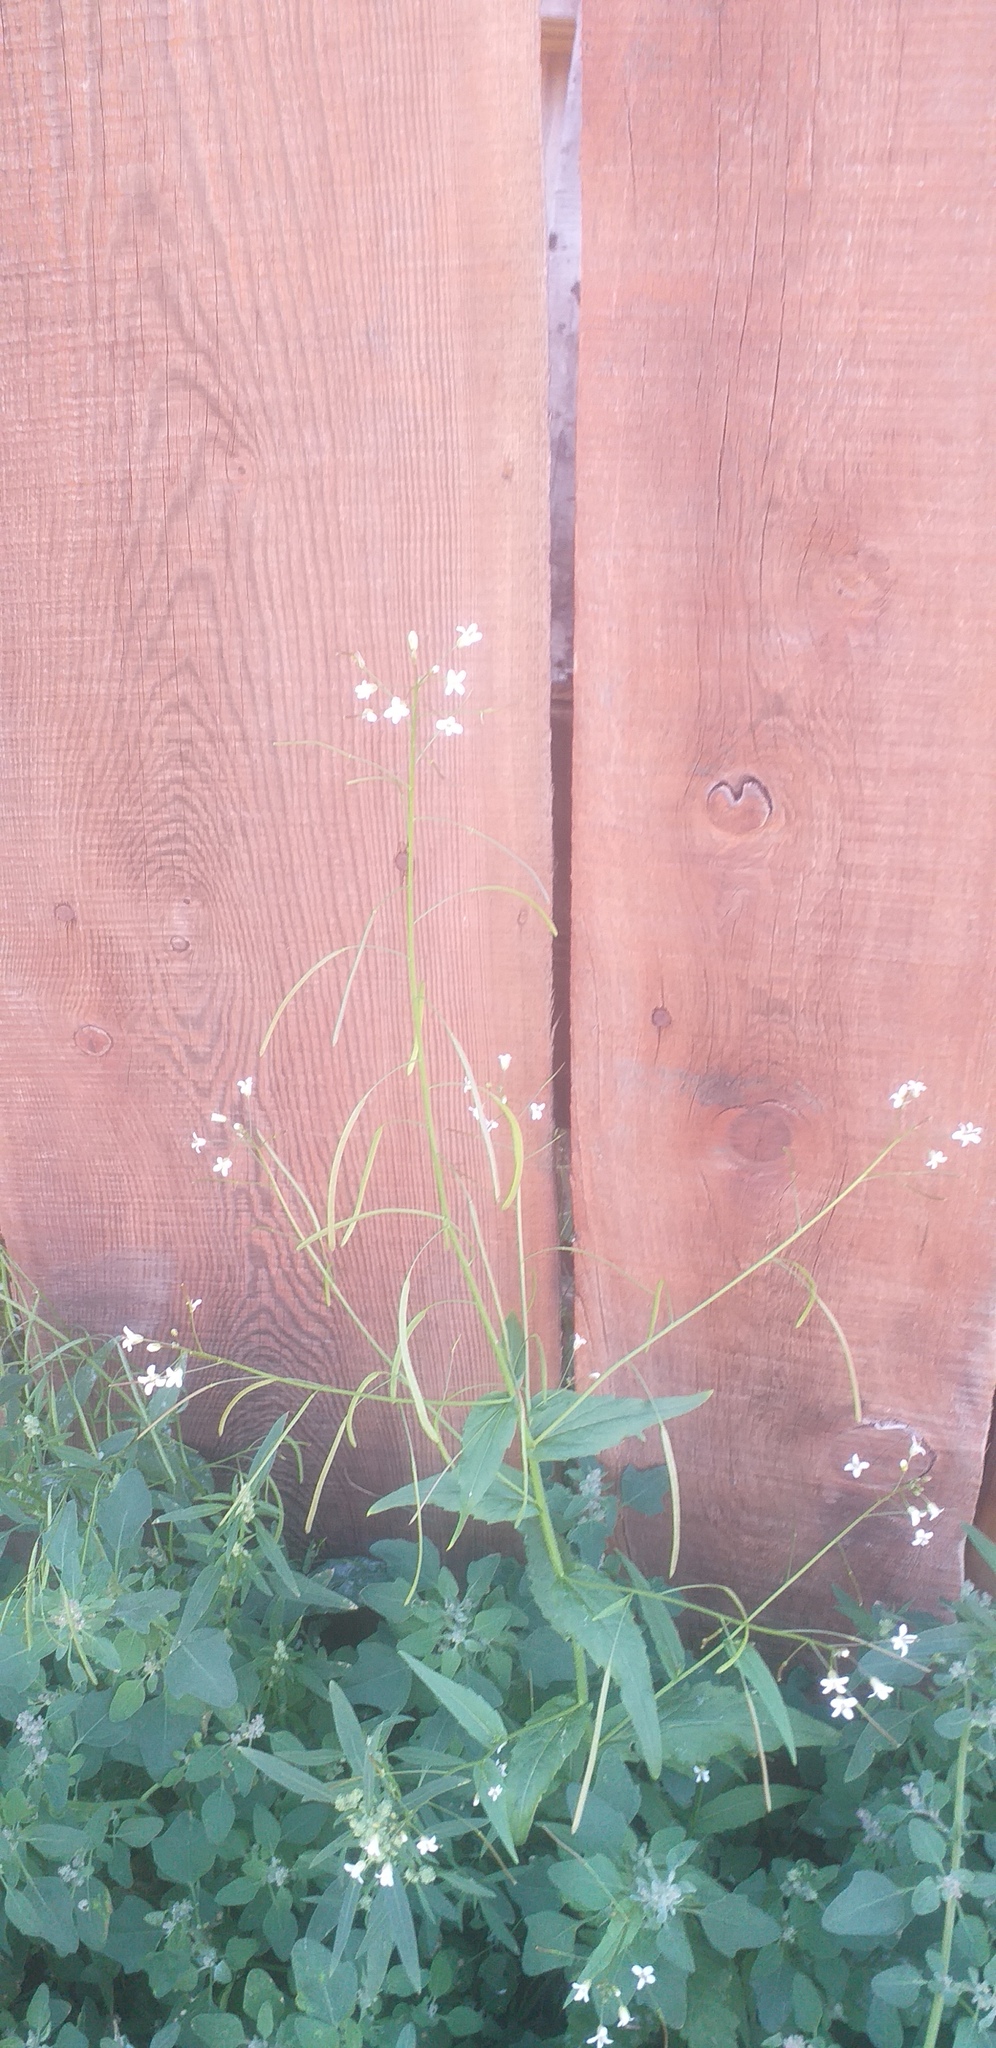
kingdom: Plantae
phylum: Tracheophyta
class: Magnoliopsida
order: Brassicales
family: Brassicaceae
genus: Catolobus
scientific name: Catolobus pendulus
